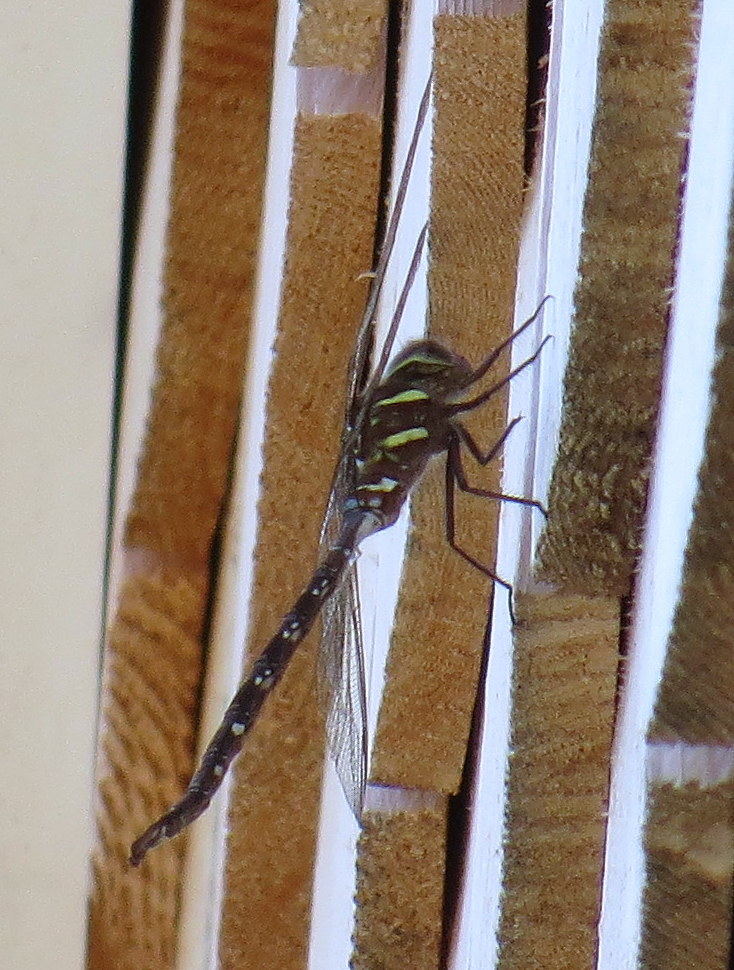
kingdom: Animalia
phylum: Arthropoda
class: Insecta
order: Odonata
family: Aeshnidae
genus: Aeshna
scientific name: Aeshna umbrosa
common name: Shadow darner
